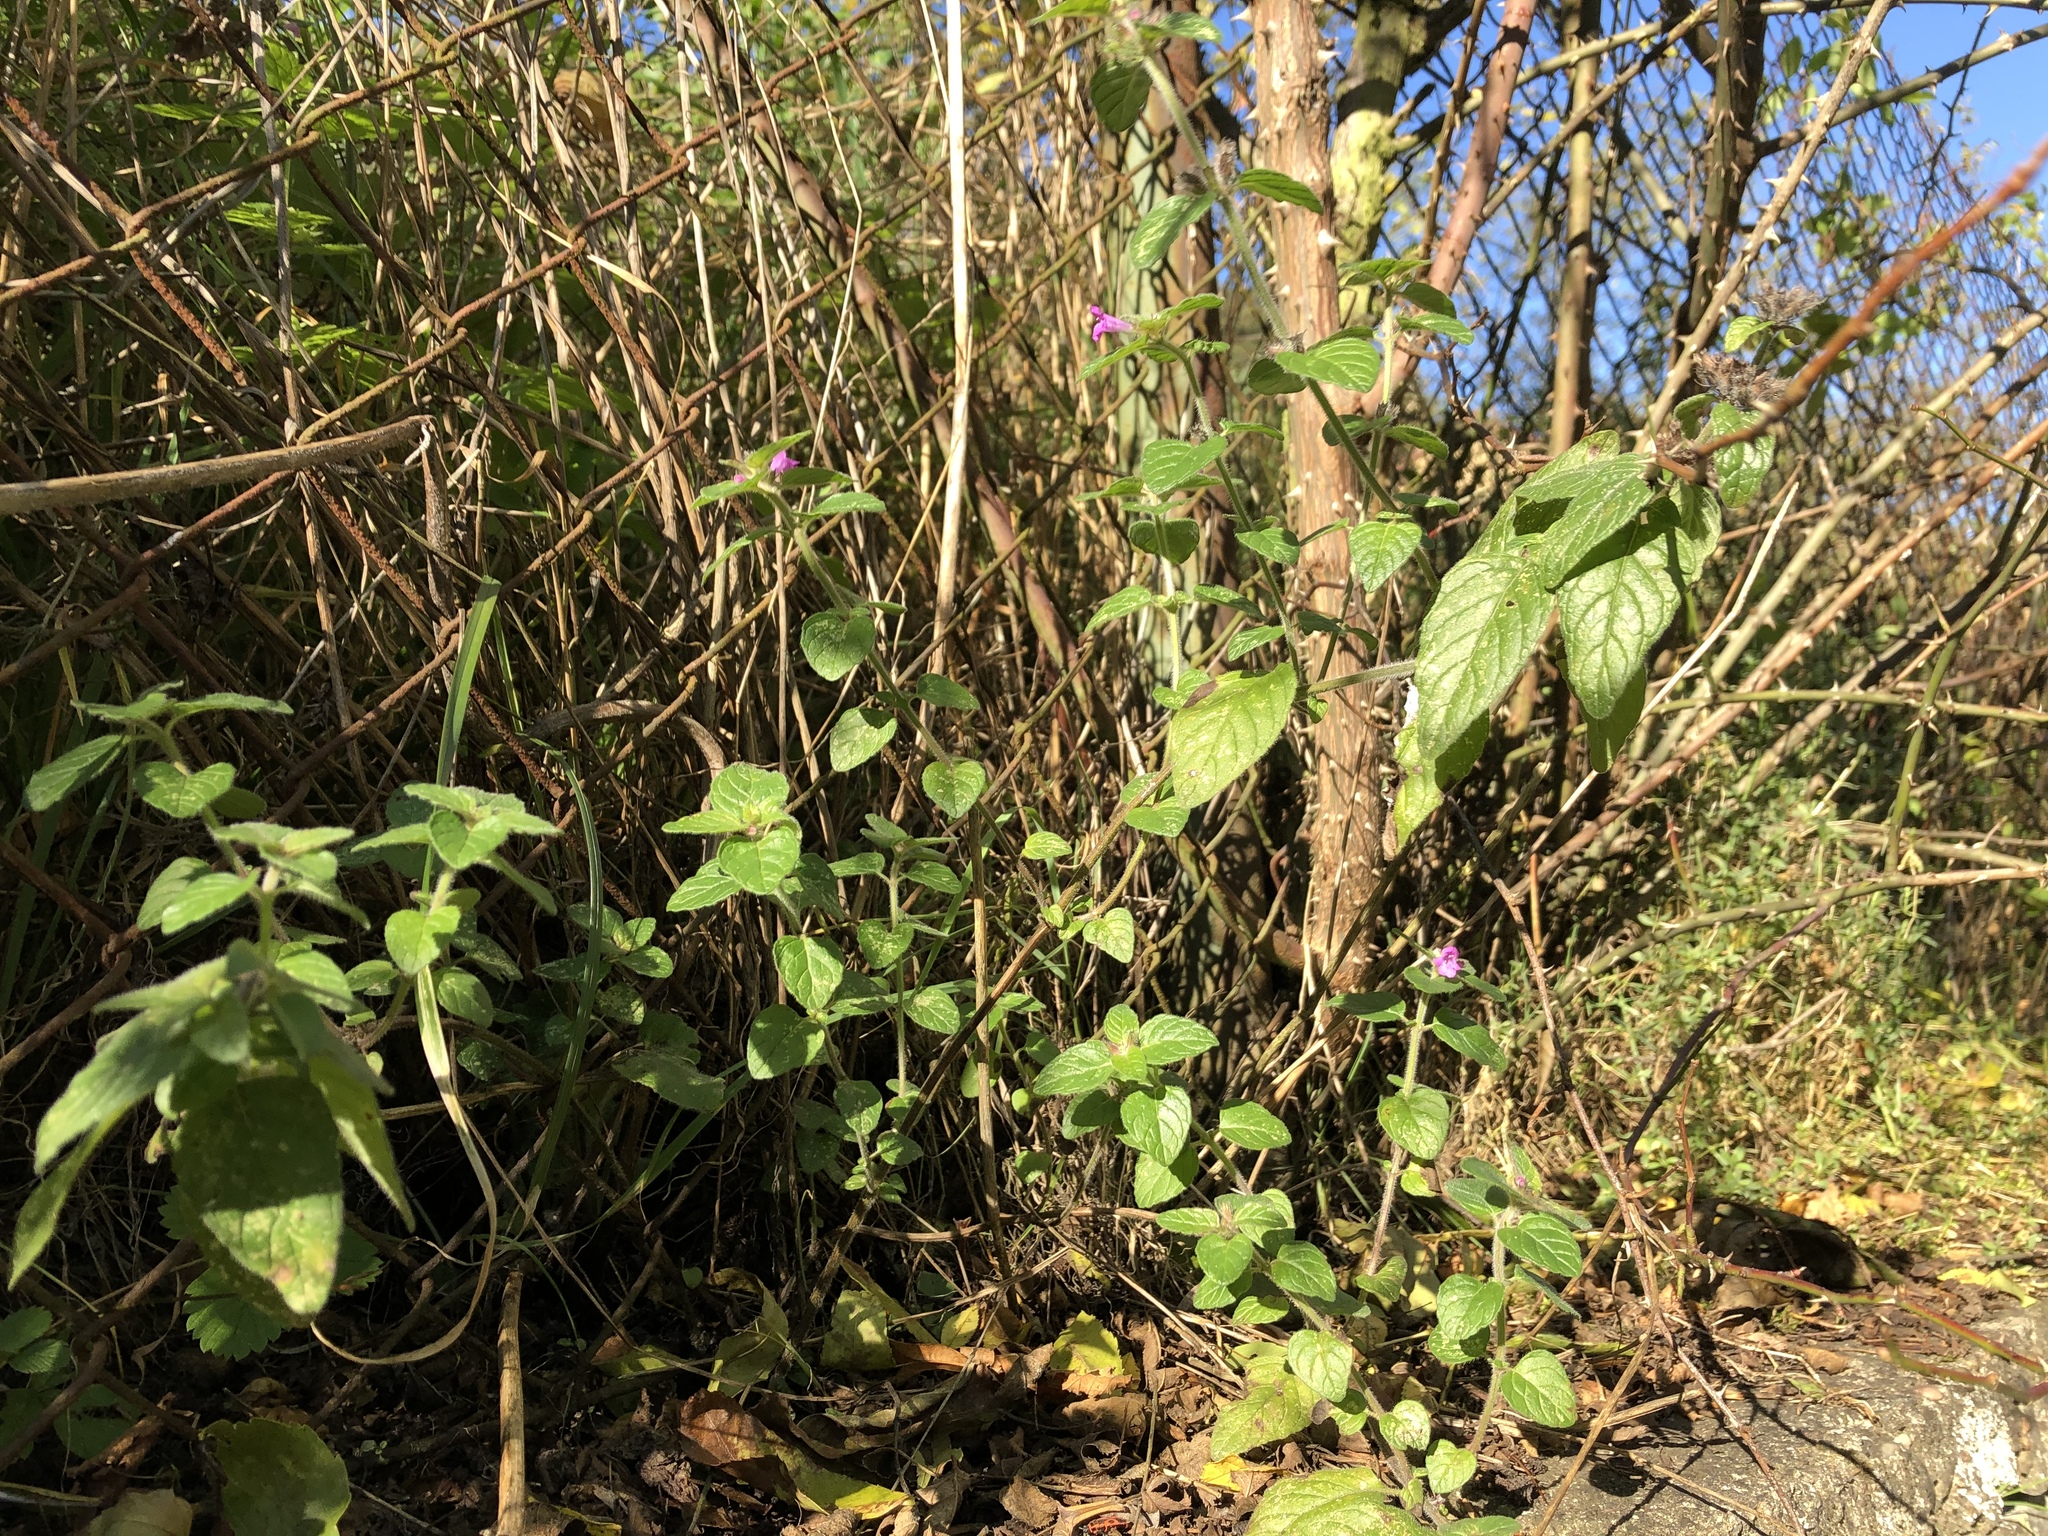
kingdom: Plantae
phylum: Tracheophyta
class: Magnoliopsida
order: Lamiales
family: Lamiaceae
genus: Clinopodium
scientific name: Clinopodium vulgare
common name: Wild basil
